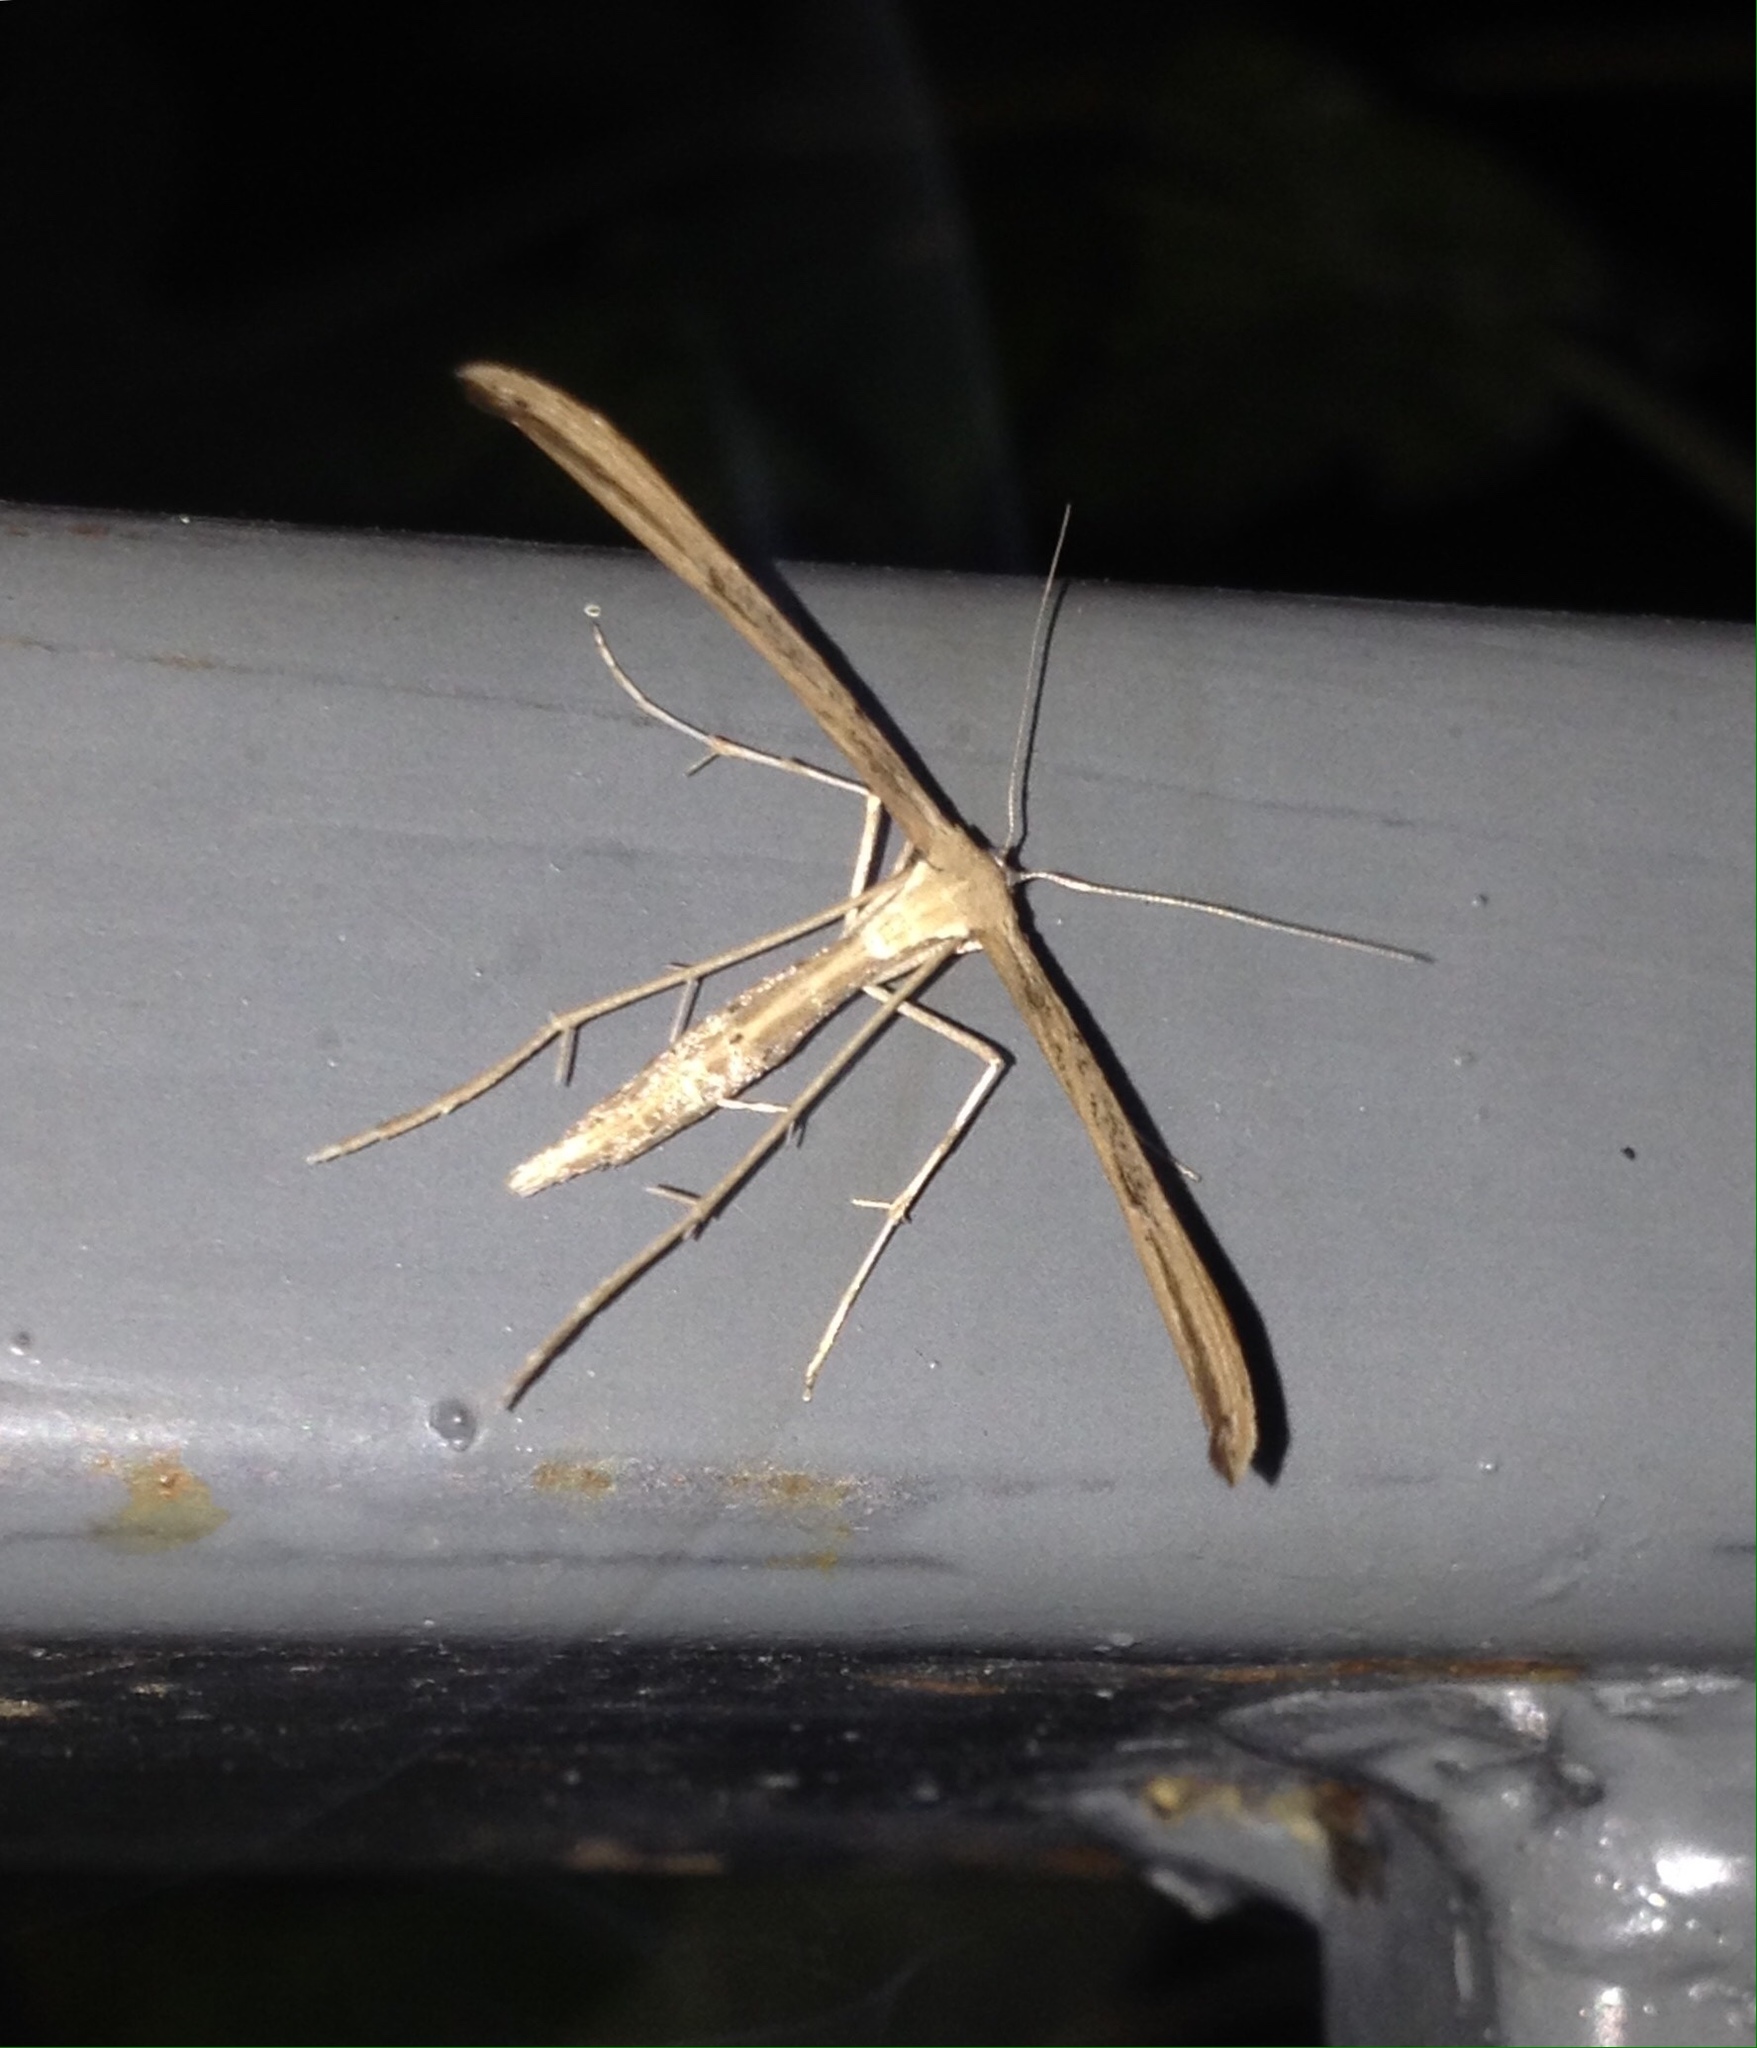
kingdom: Animalia
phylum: Arthropoda
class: Insecta
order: Lepidoptera
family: Pterophoridae
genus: Emmelina
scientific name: Emmelina monodactyla
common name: Common plume
